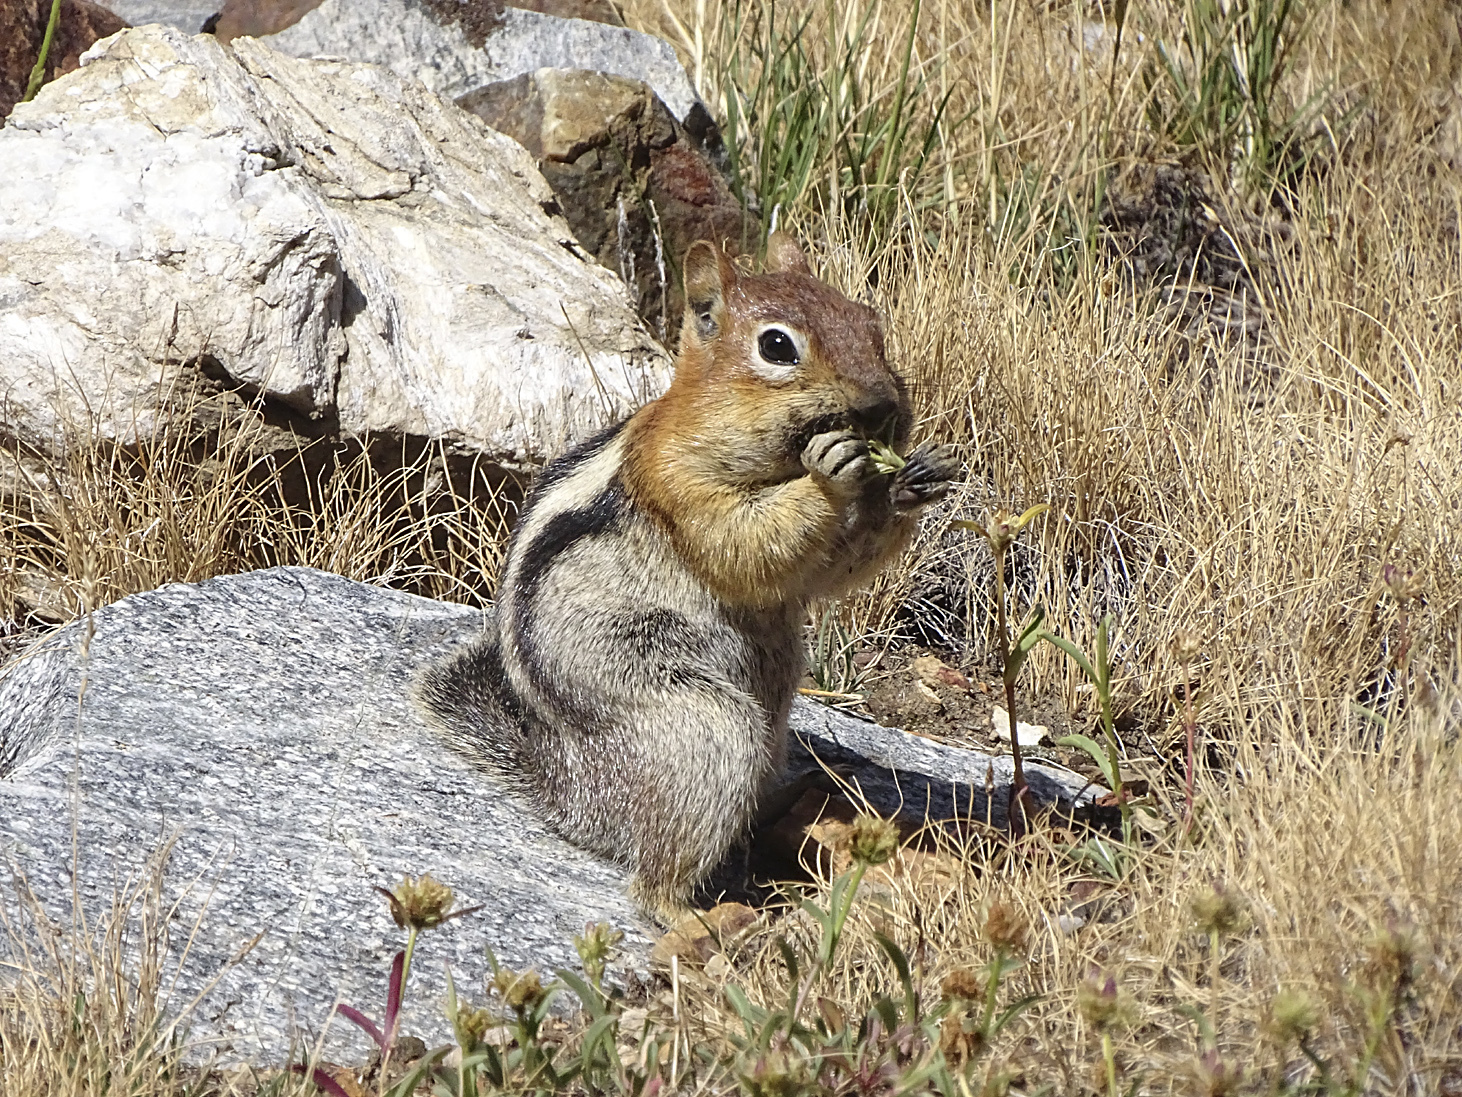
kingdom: Animalia
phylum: Chordata
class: Mammalia
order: Rodentia
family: Sciuridae
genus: Callospermophilus
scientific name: Callospermophilus lateralis
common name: Golden-mantled ground squirrel
